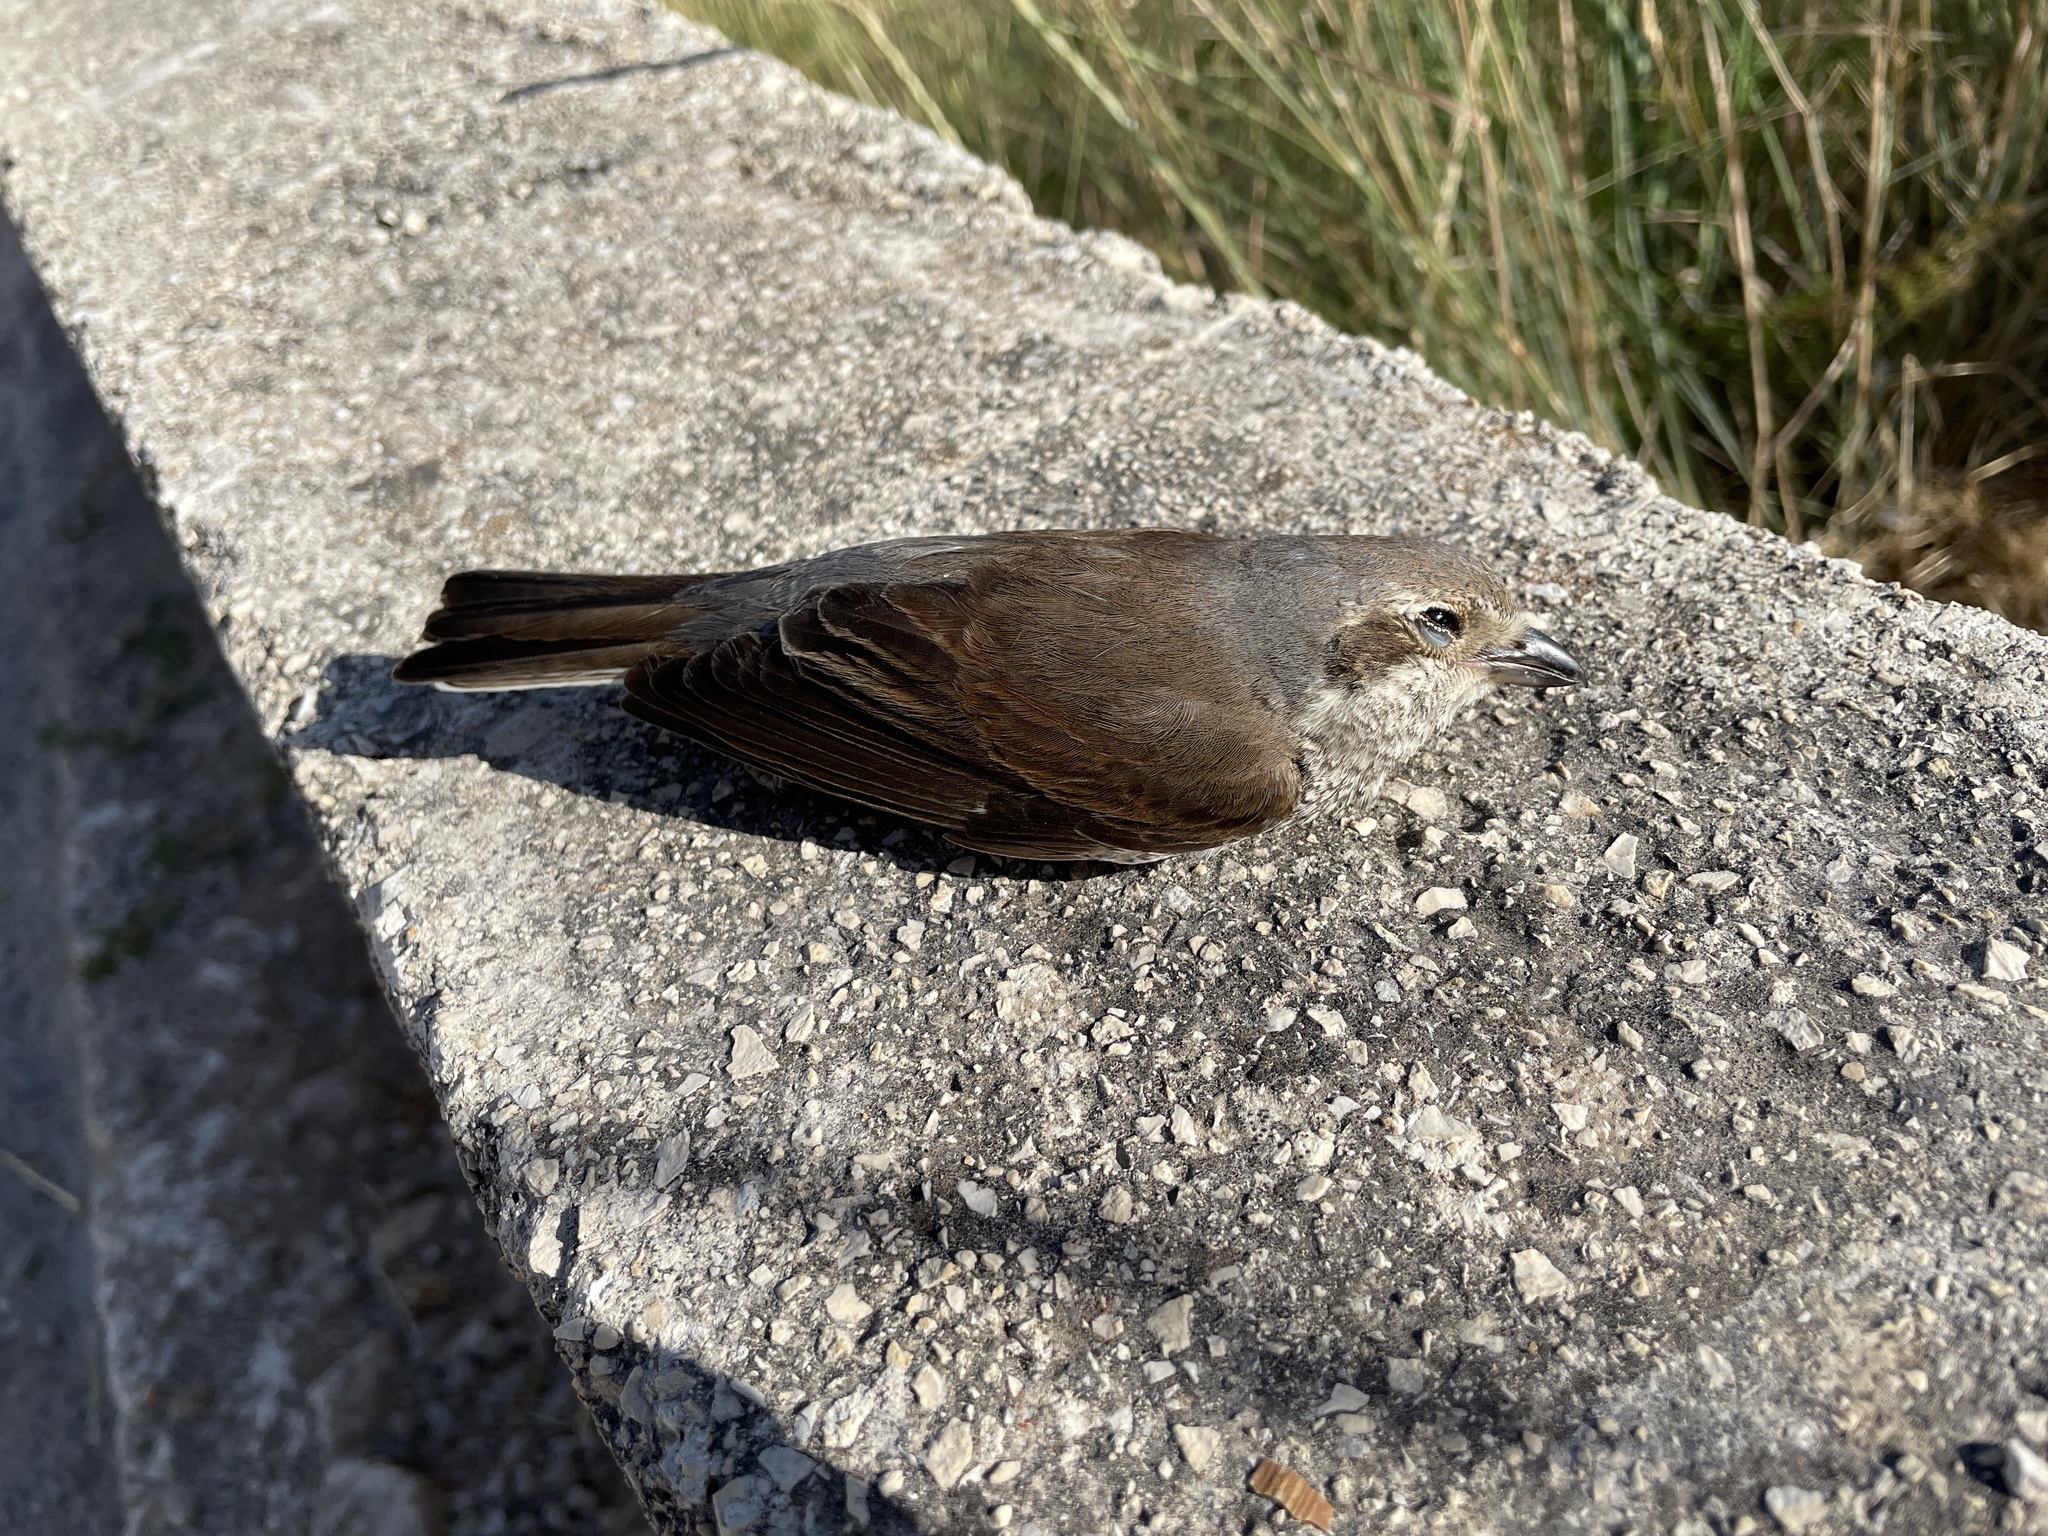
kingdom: Animalia
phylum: Chordata
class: Aves
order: Passeriformes
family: Laniidae
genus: Lanius
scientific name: Lanius collurio
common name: Red-backed shrike
